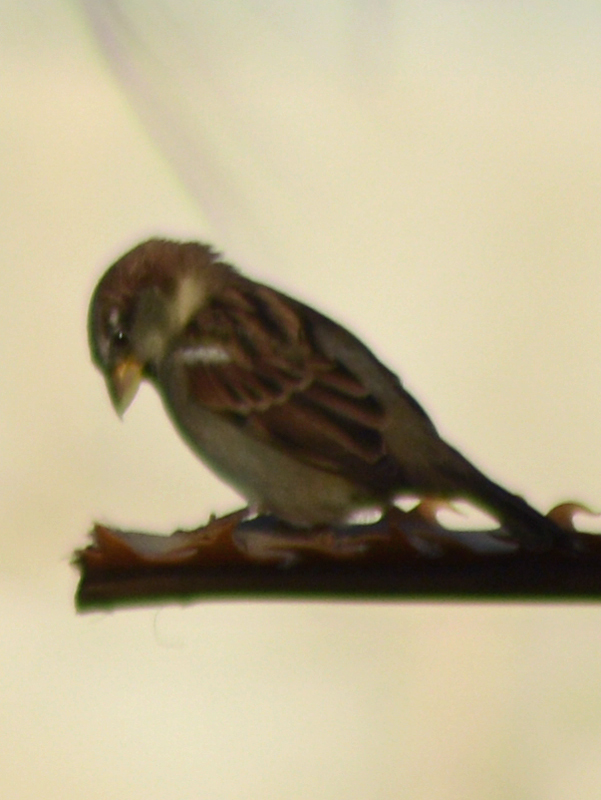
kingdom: Animalia
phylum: Chordata
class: Aves
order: Passeriformes
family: Passeridae
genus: Passer
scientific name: Passer domesticus
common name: House sparrow
